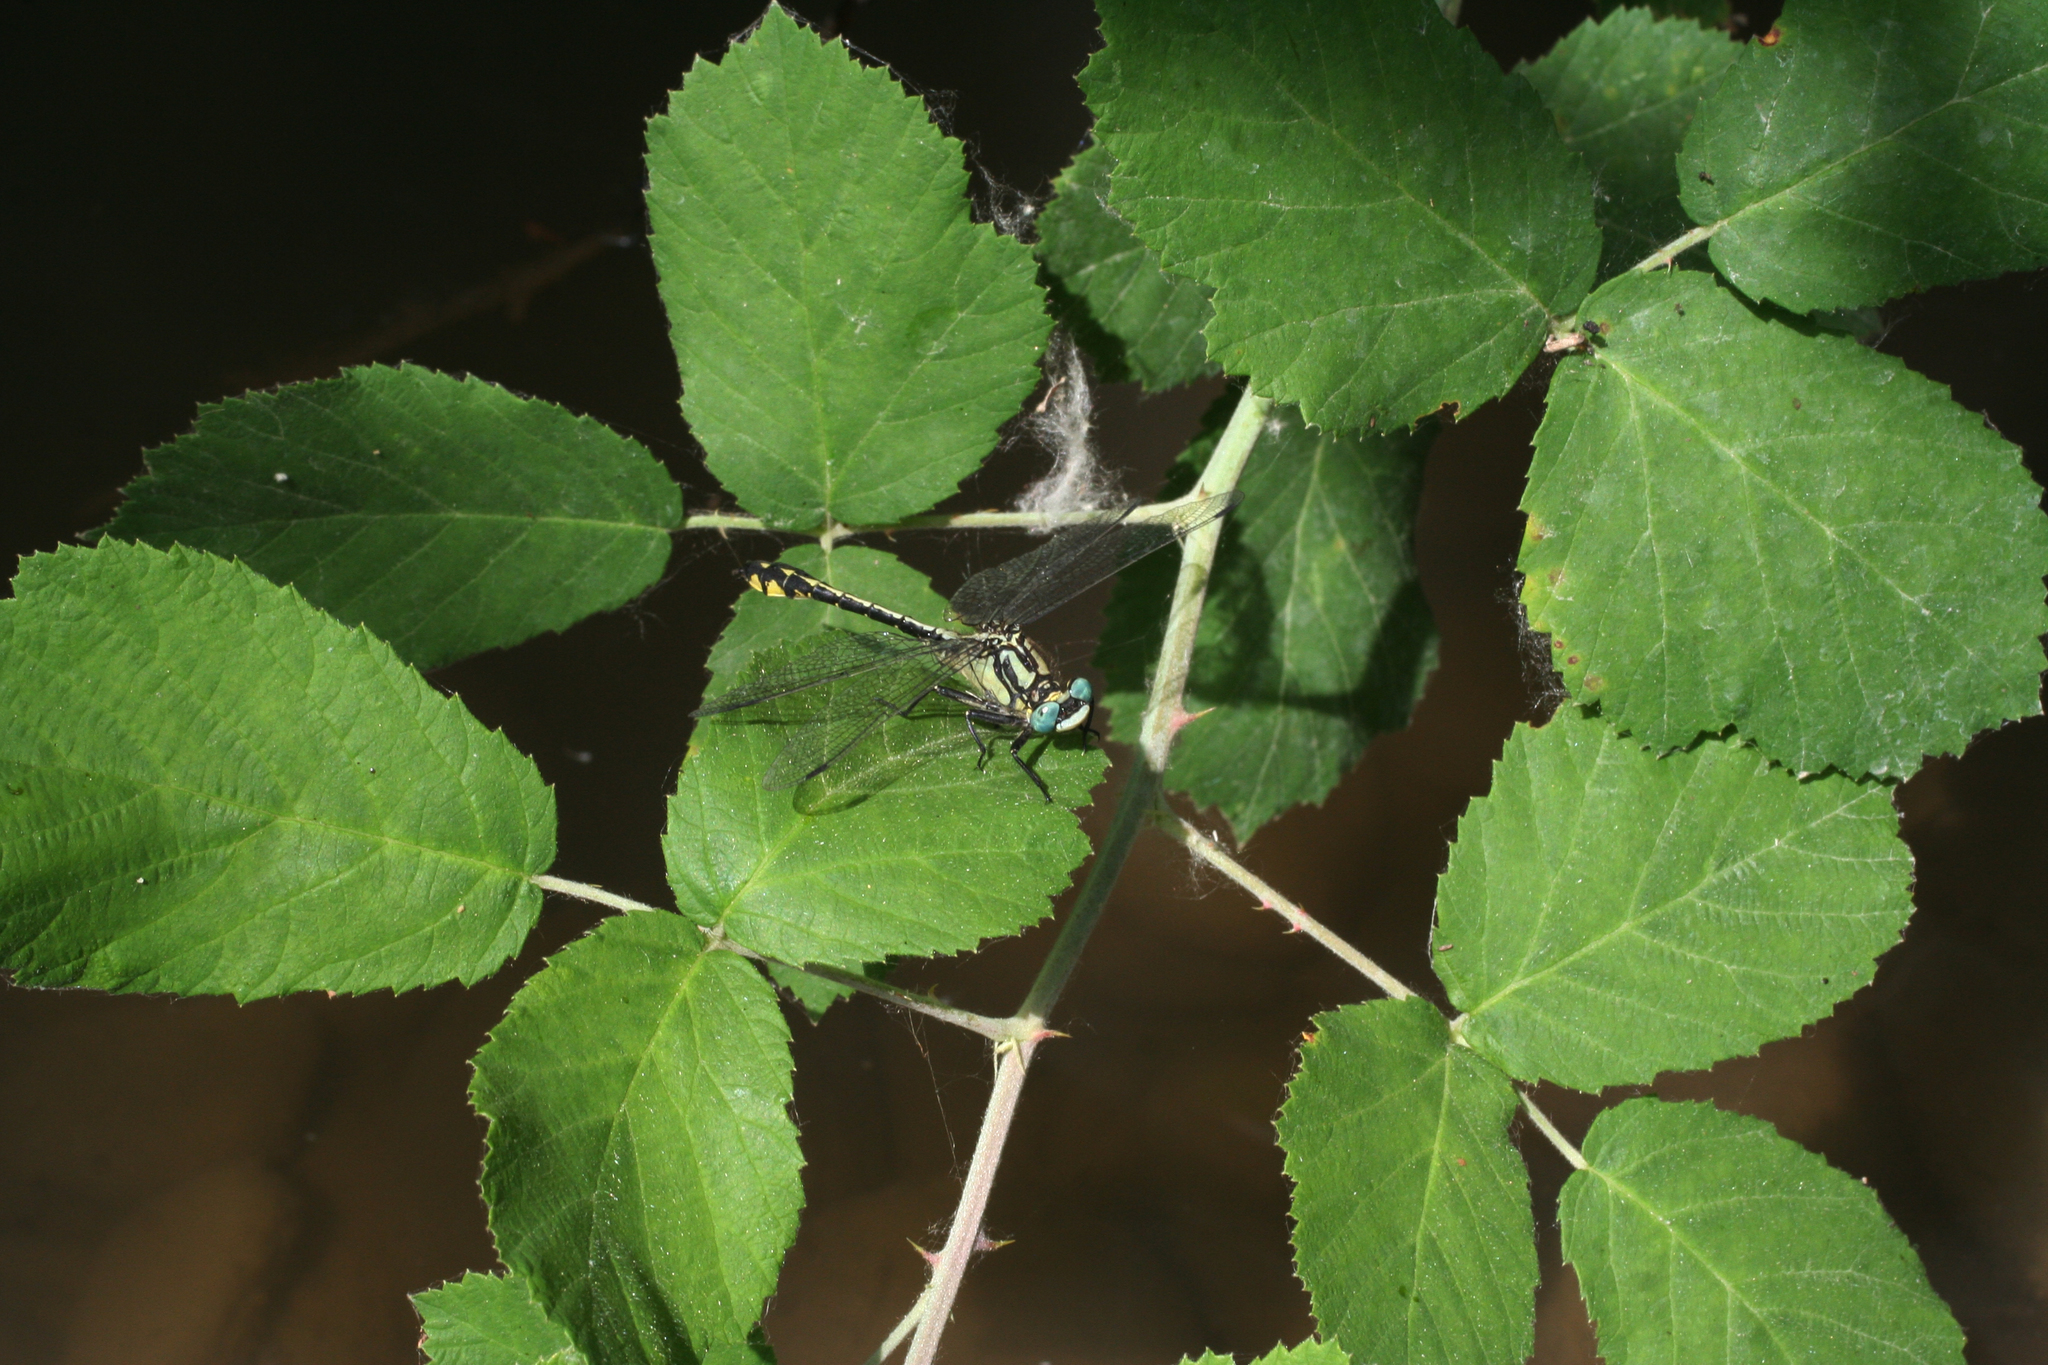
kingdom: Animalia
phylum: Arthropoda
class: Insecta
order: Odonata
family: Gomphidae
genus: Gomphus
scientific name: Gomphus schneiderii
